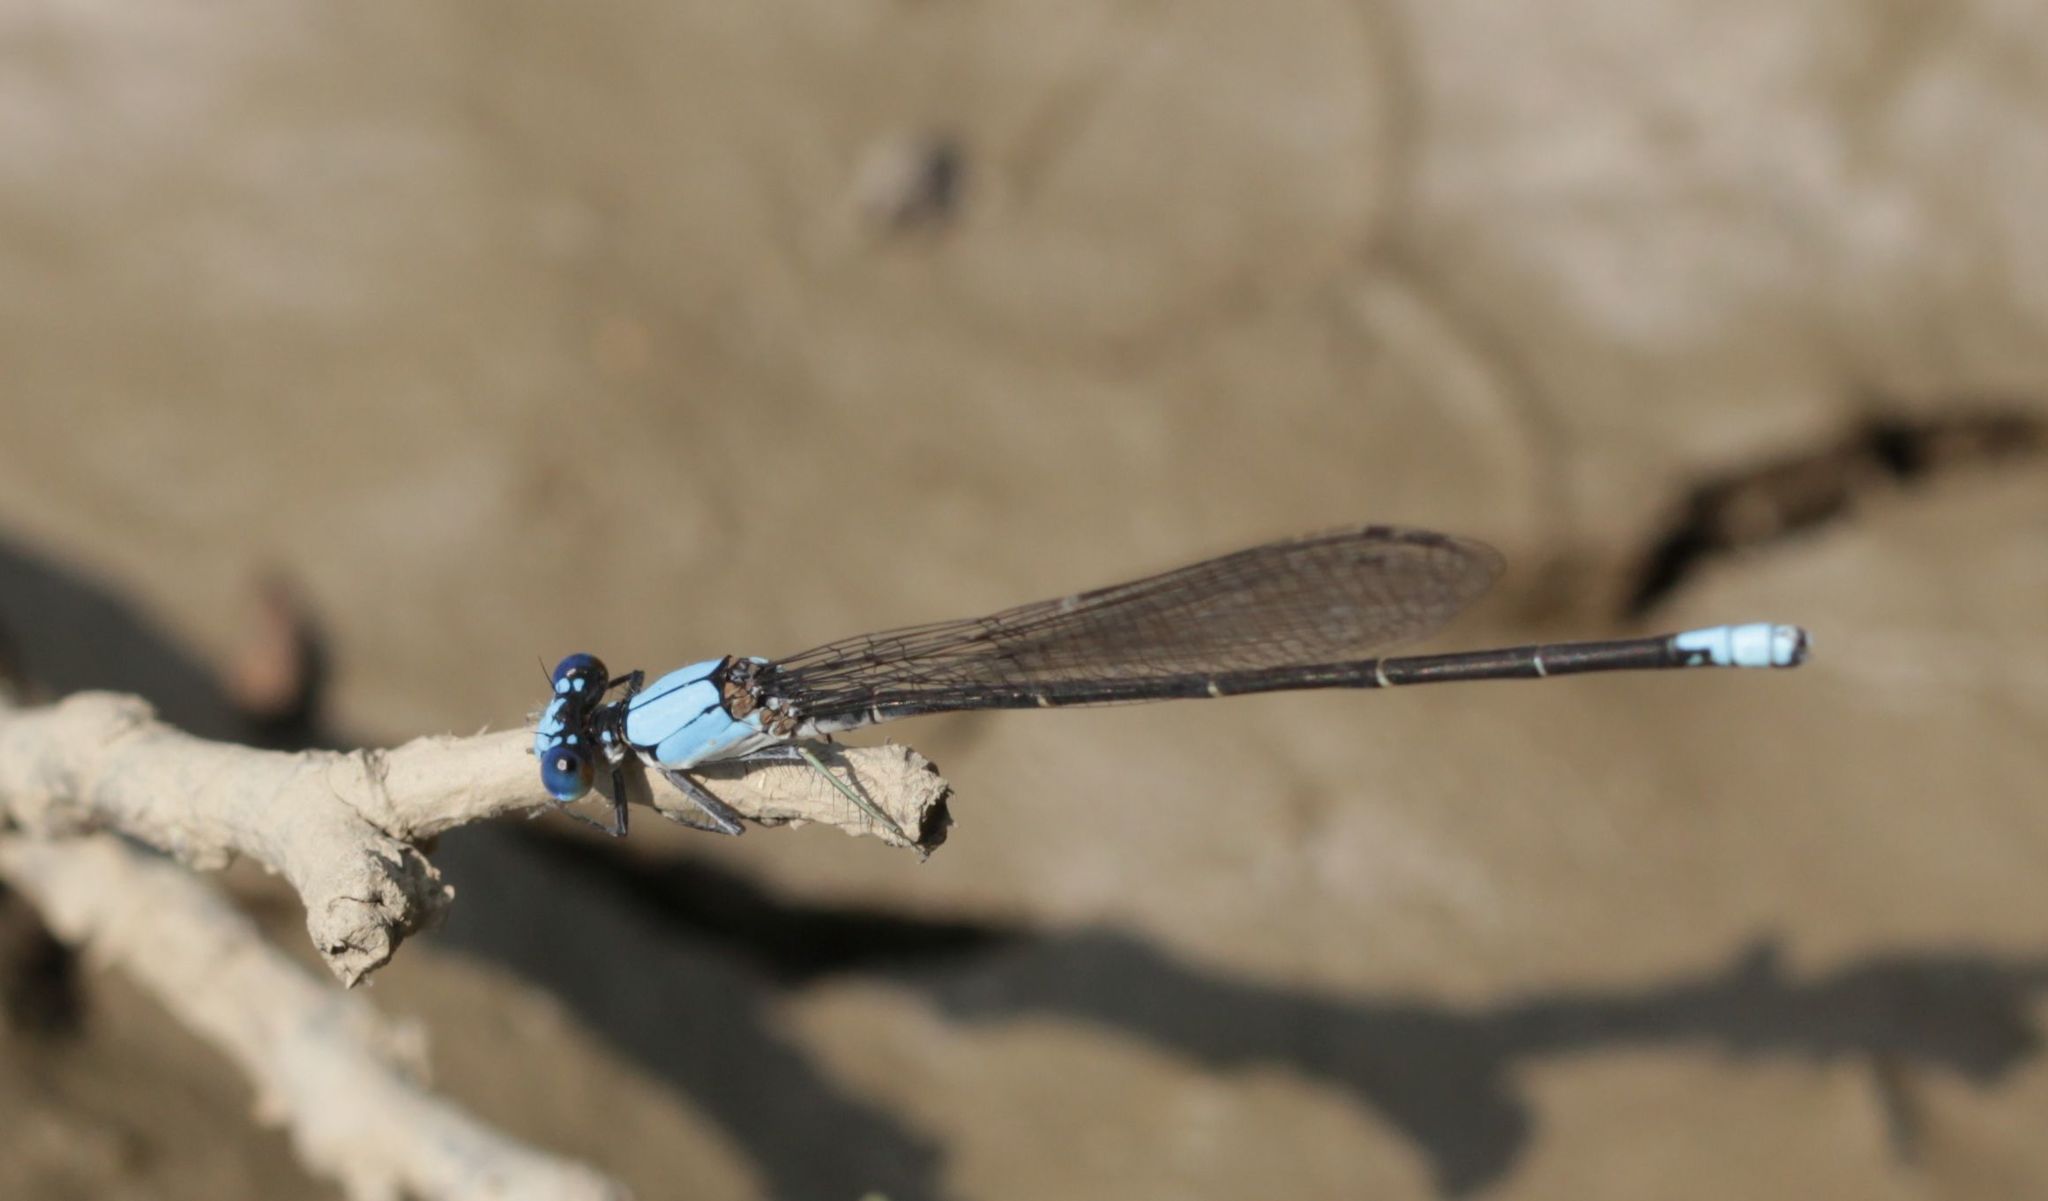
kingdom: Animalia
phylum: Arthropoda
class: Insecta
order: Odonata
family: Coenagrionidae
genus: Argia
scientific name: Argia apicalis
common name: Blue-fronted dancer
